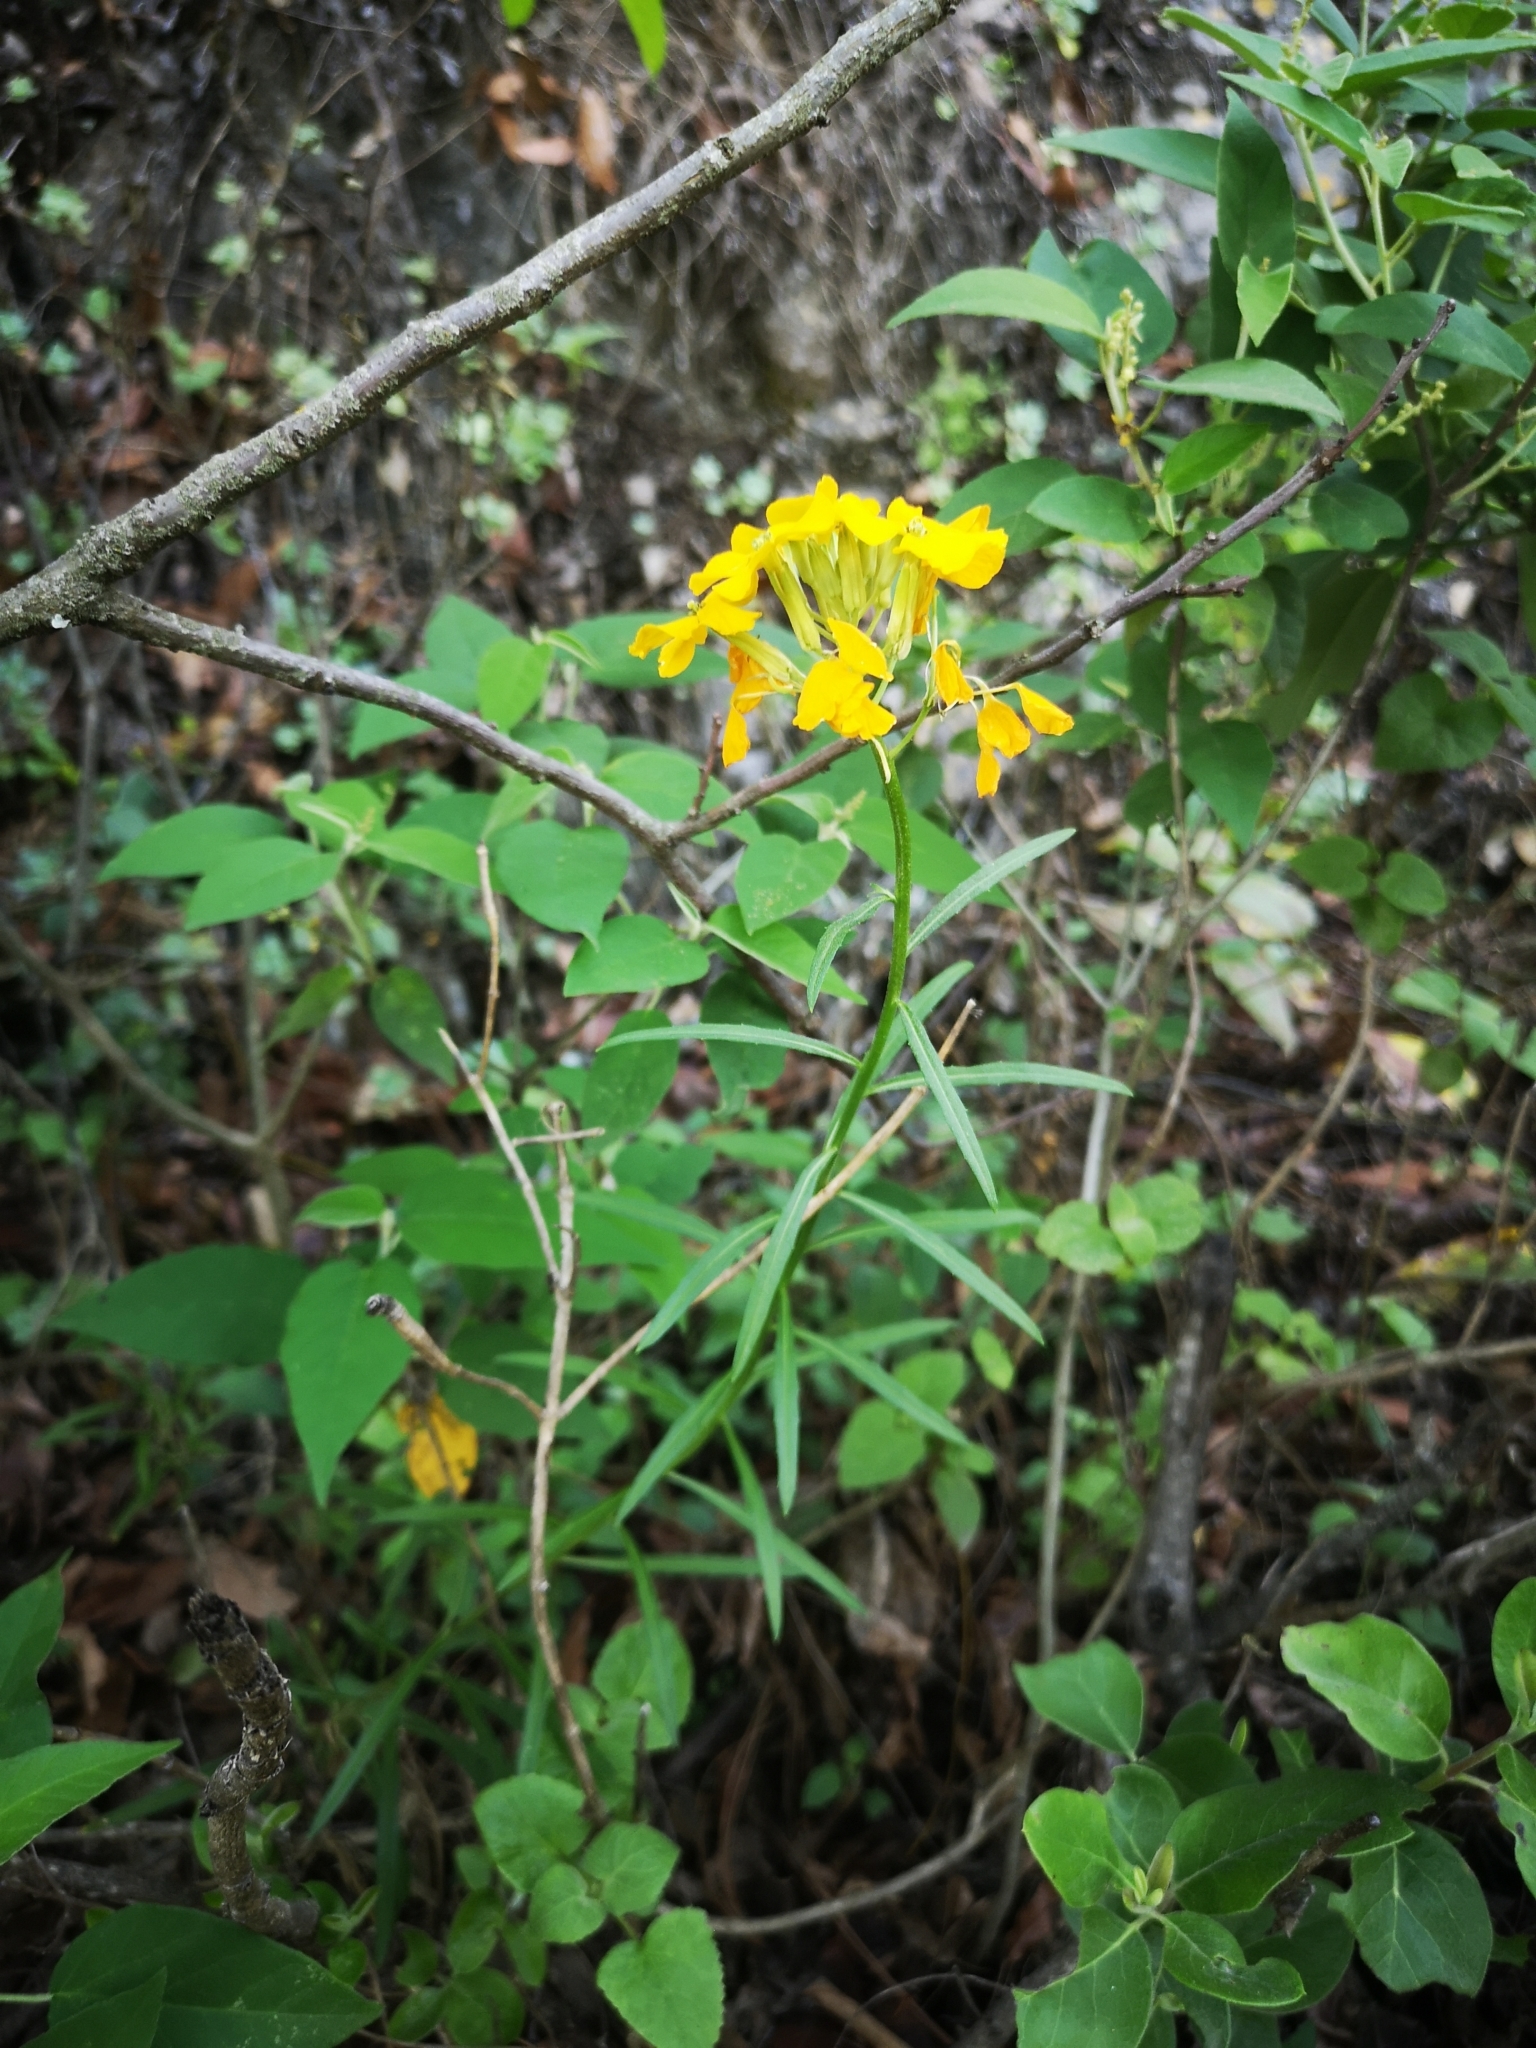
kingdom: Plantae
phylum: Tracheophyta
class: Magnoliopsida
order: Brassicales
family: Brassicaceae
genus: Erysimum
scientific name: Erysimum capitatum
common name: Western wallflower
